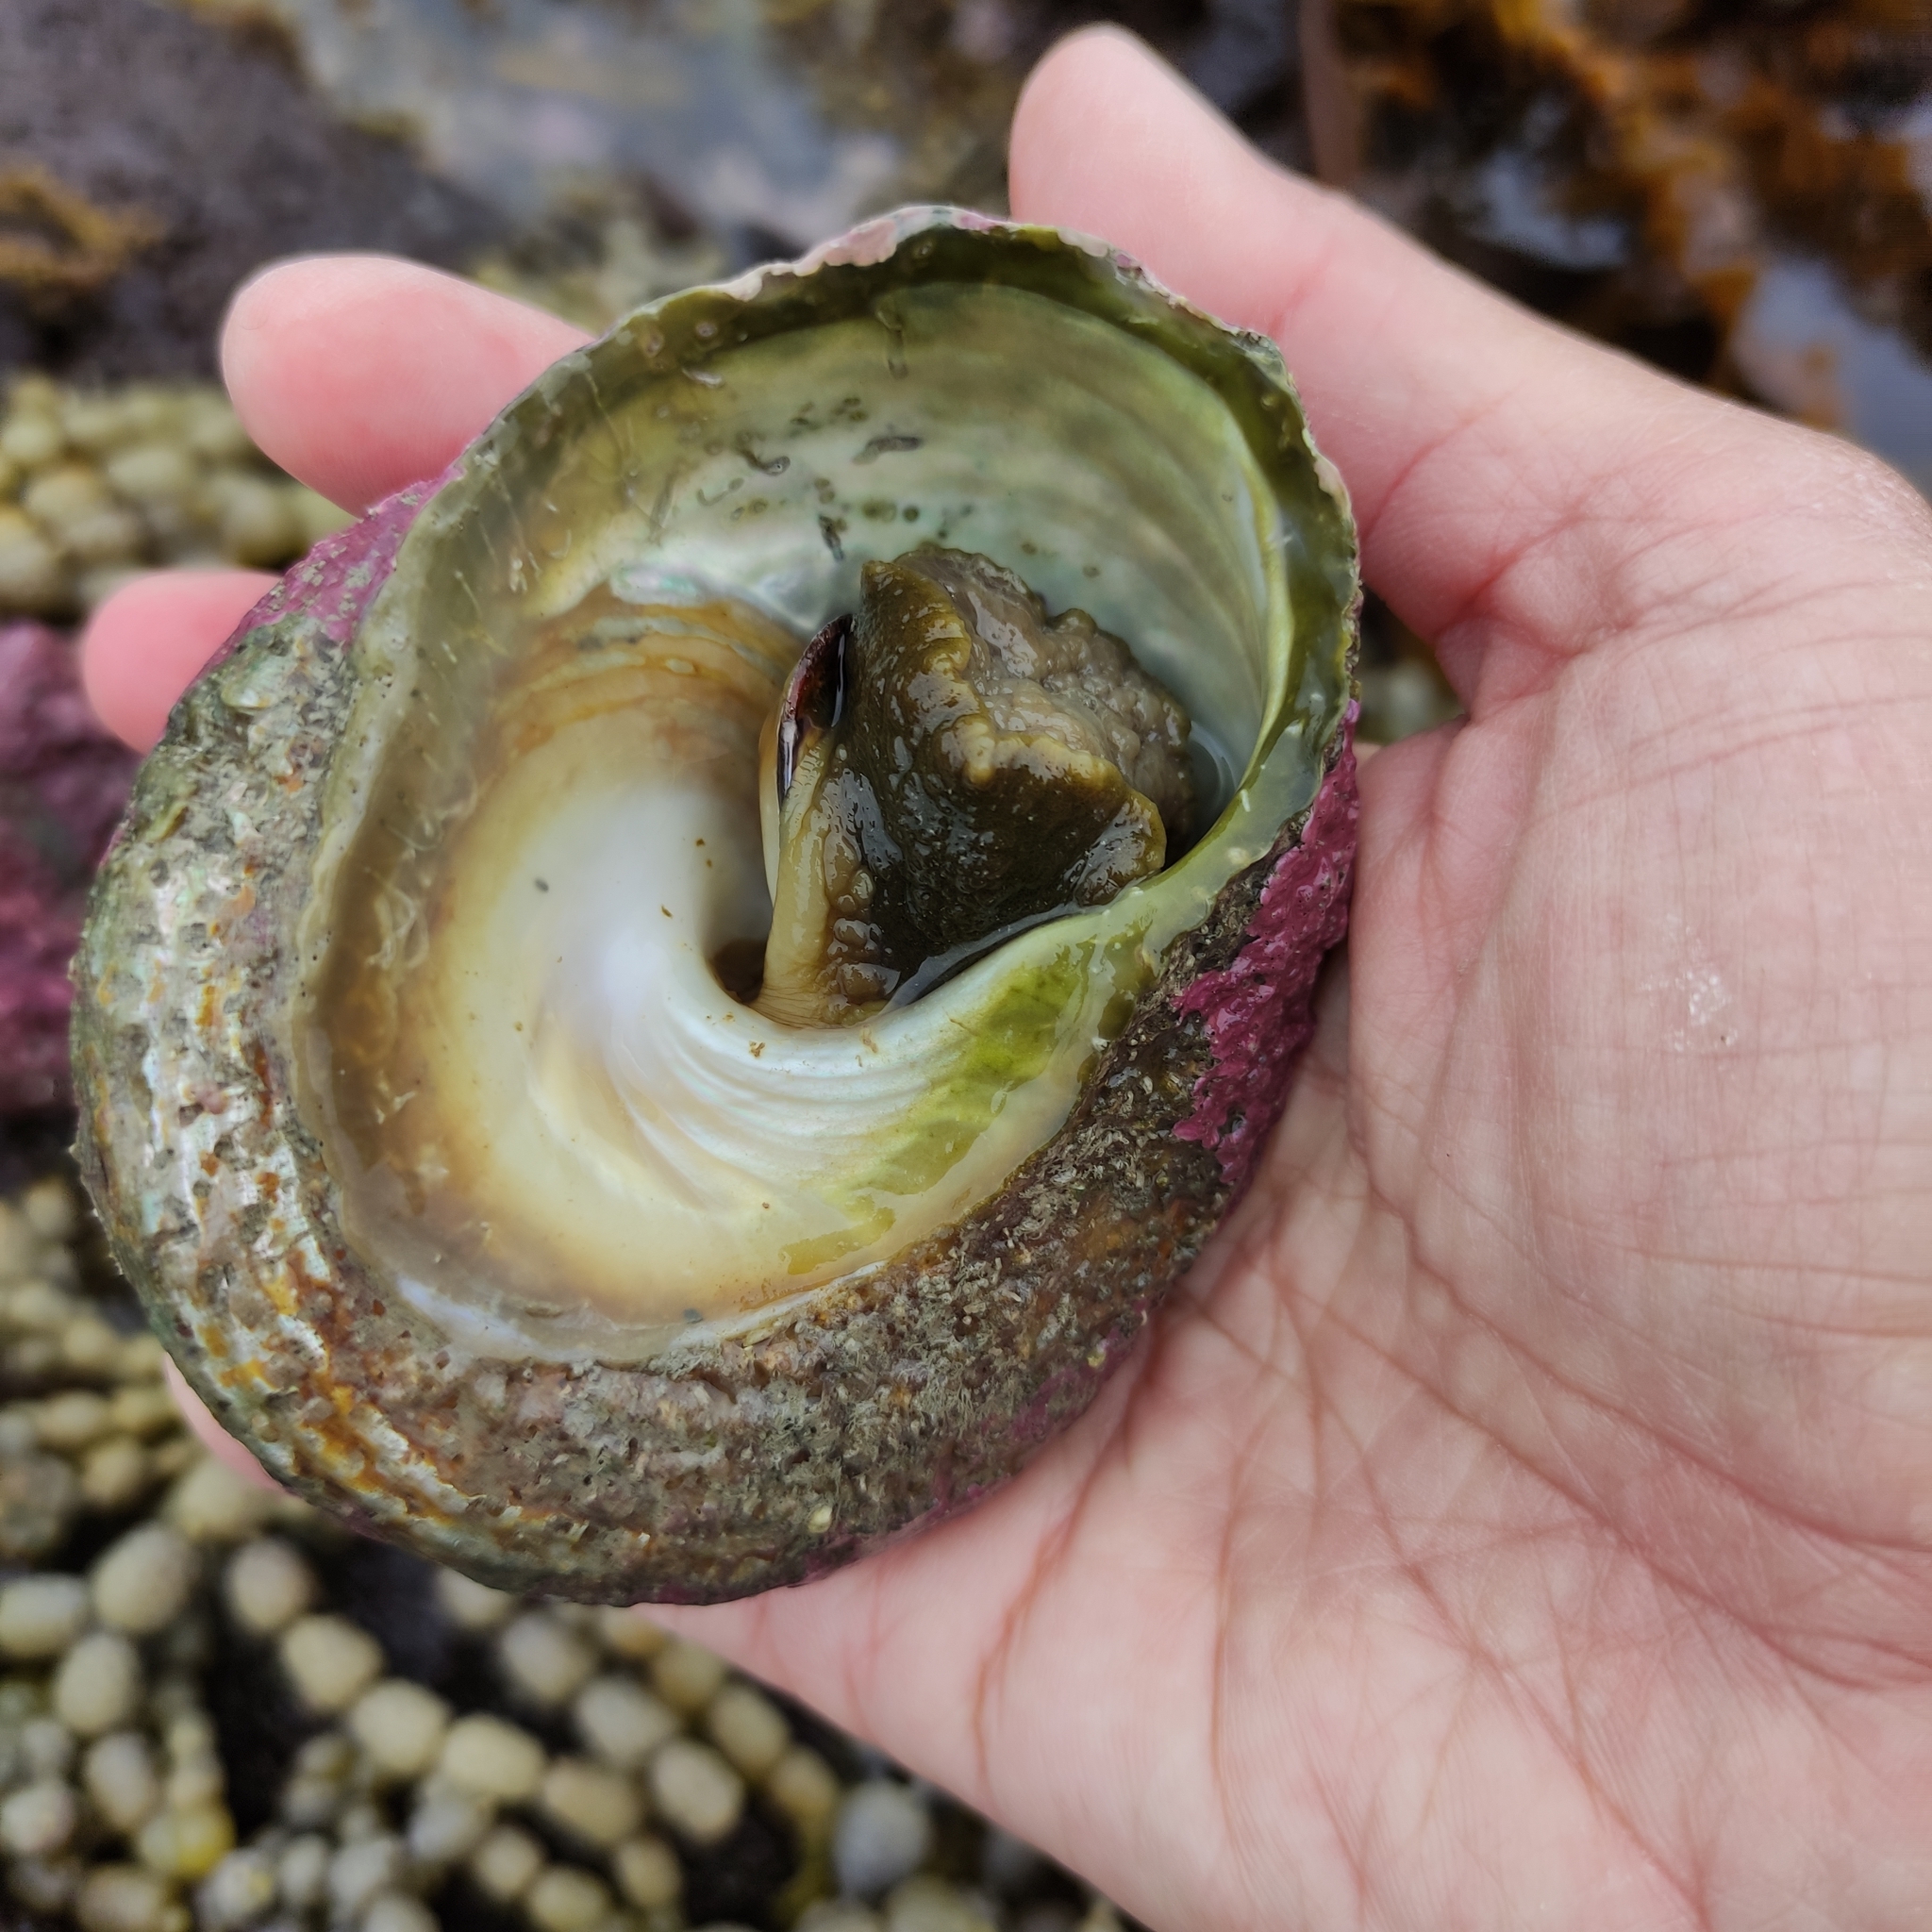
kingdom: Animalia
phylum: Mollusca
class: Gastropoda
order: Trochida
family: Turbinidae
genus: Cookia
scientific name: Cookia sulcata
